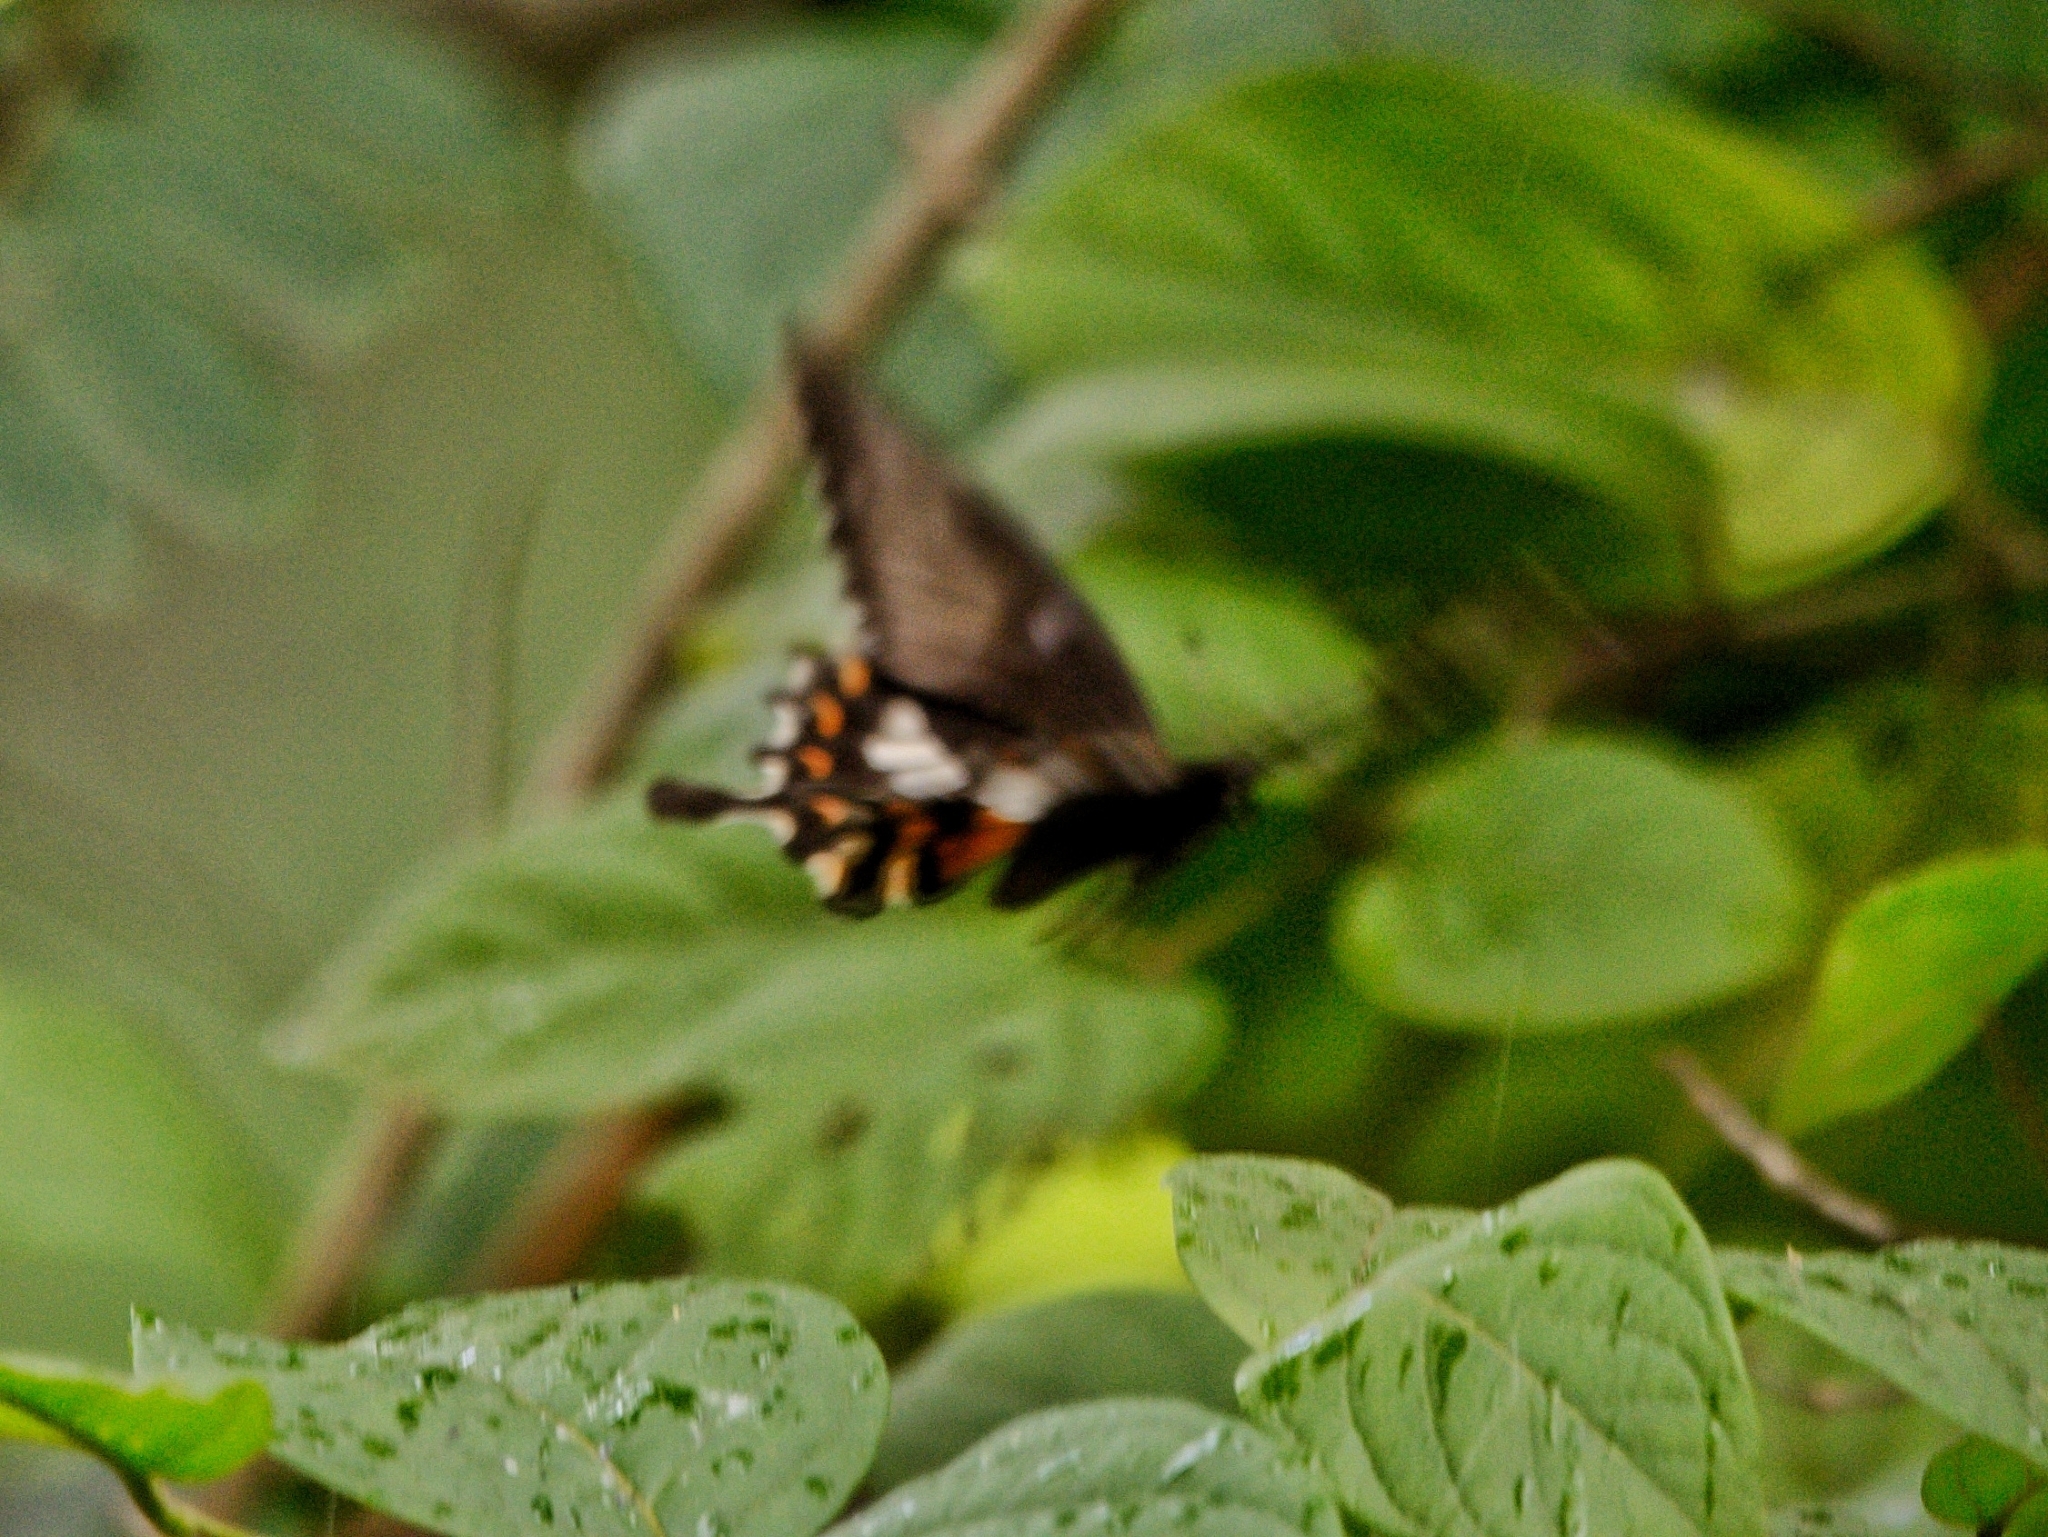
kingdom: Animalia
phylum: Arthropoda
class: Insecta
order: Lepidoptera
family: Papilionidae
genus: Papilio
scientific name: Papilio polytes
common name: Common mormon
